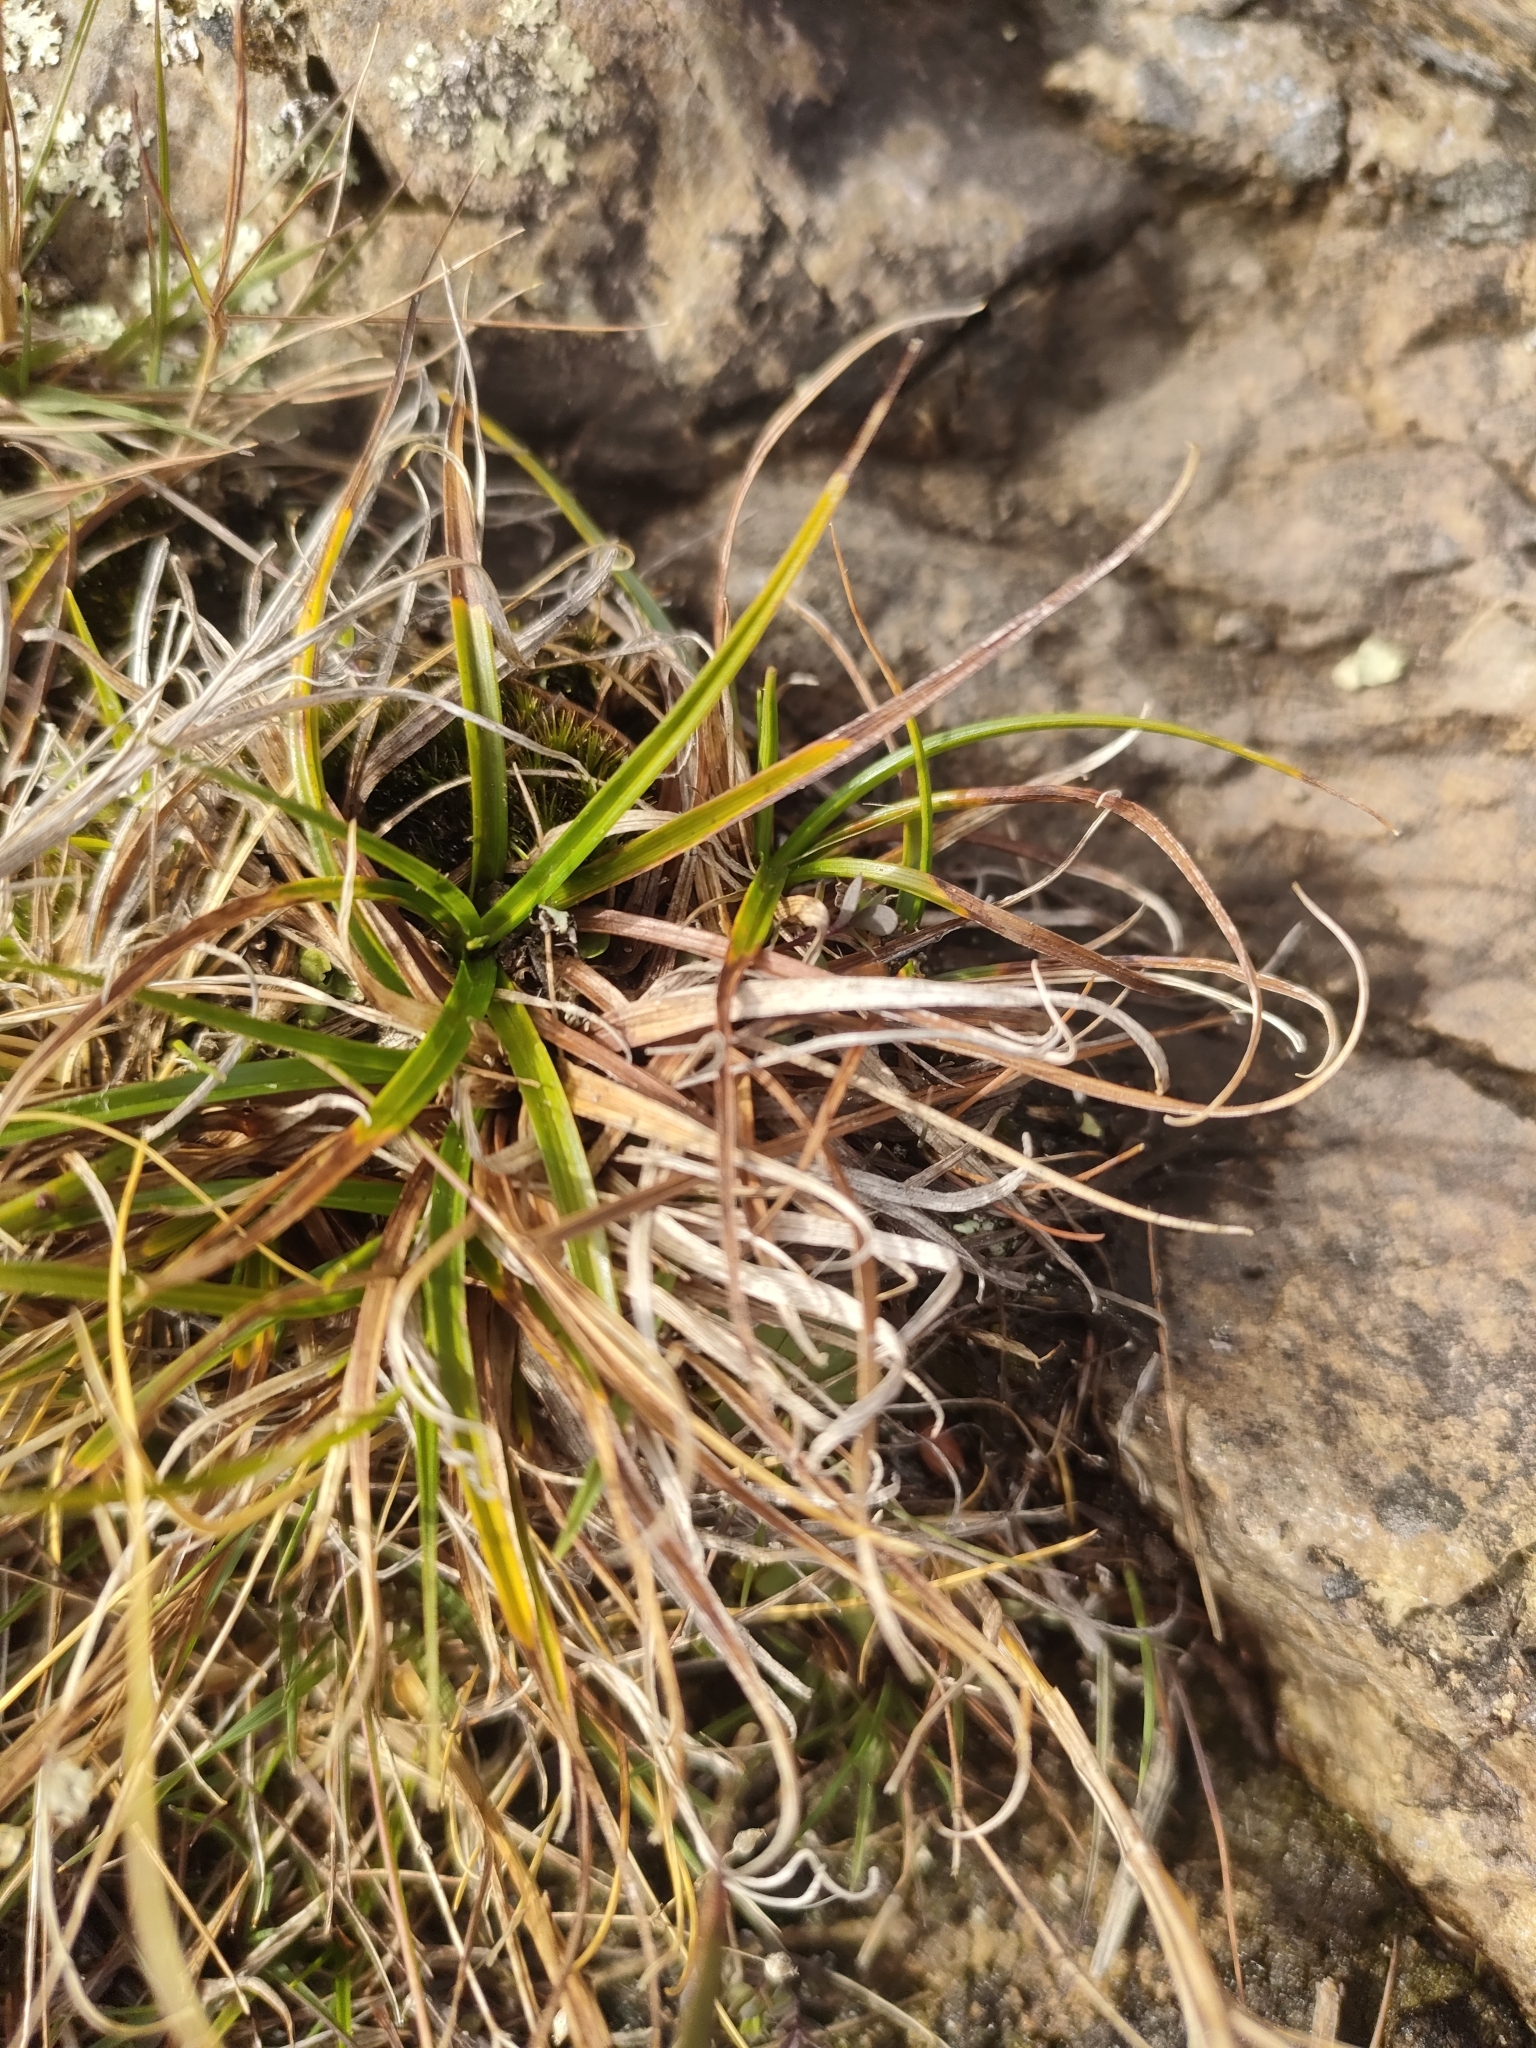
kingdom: Plantae
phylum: Tracheophyta
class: Liliopsida
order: Poales
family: Cyperaceae
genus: Carex
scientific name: Carex breviculmis
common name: Asian shortstem sedge
